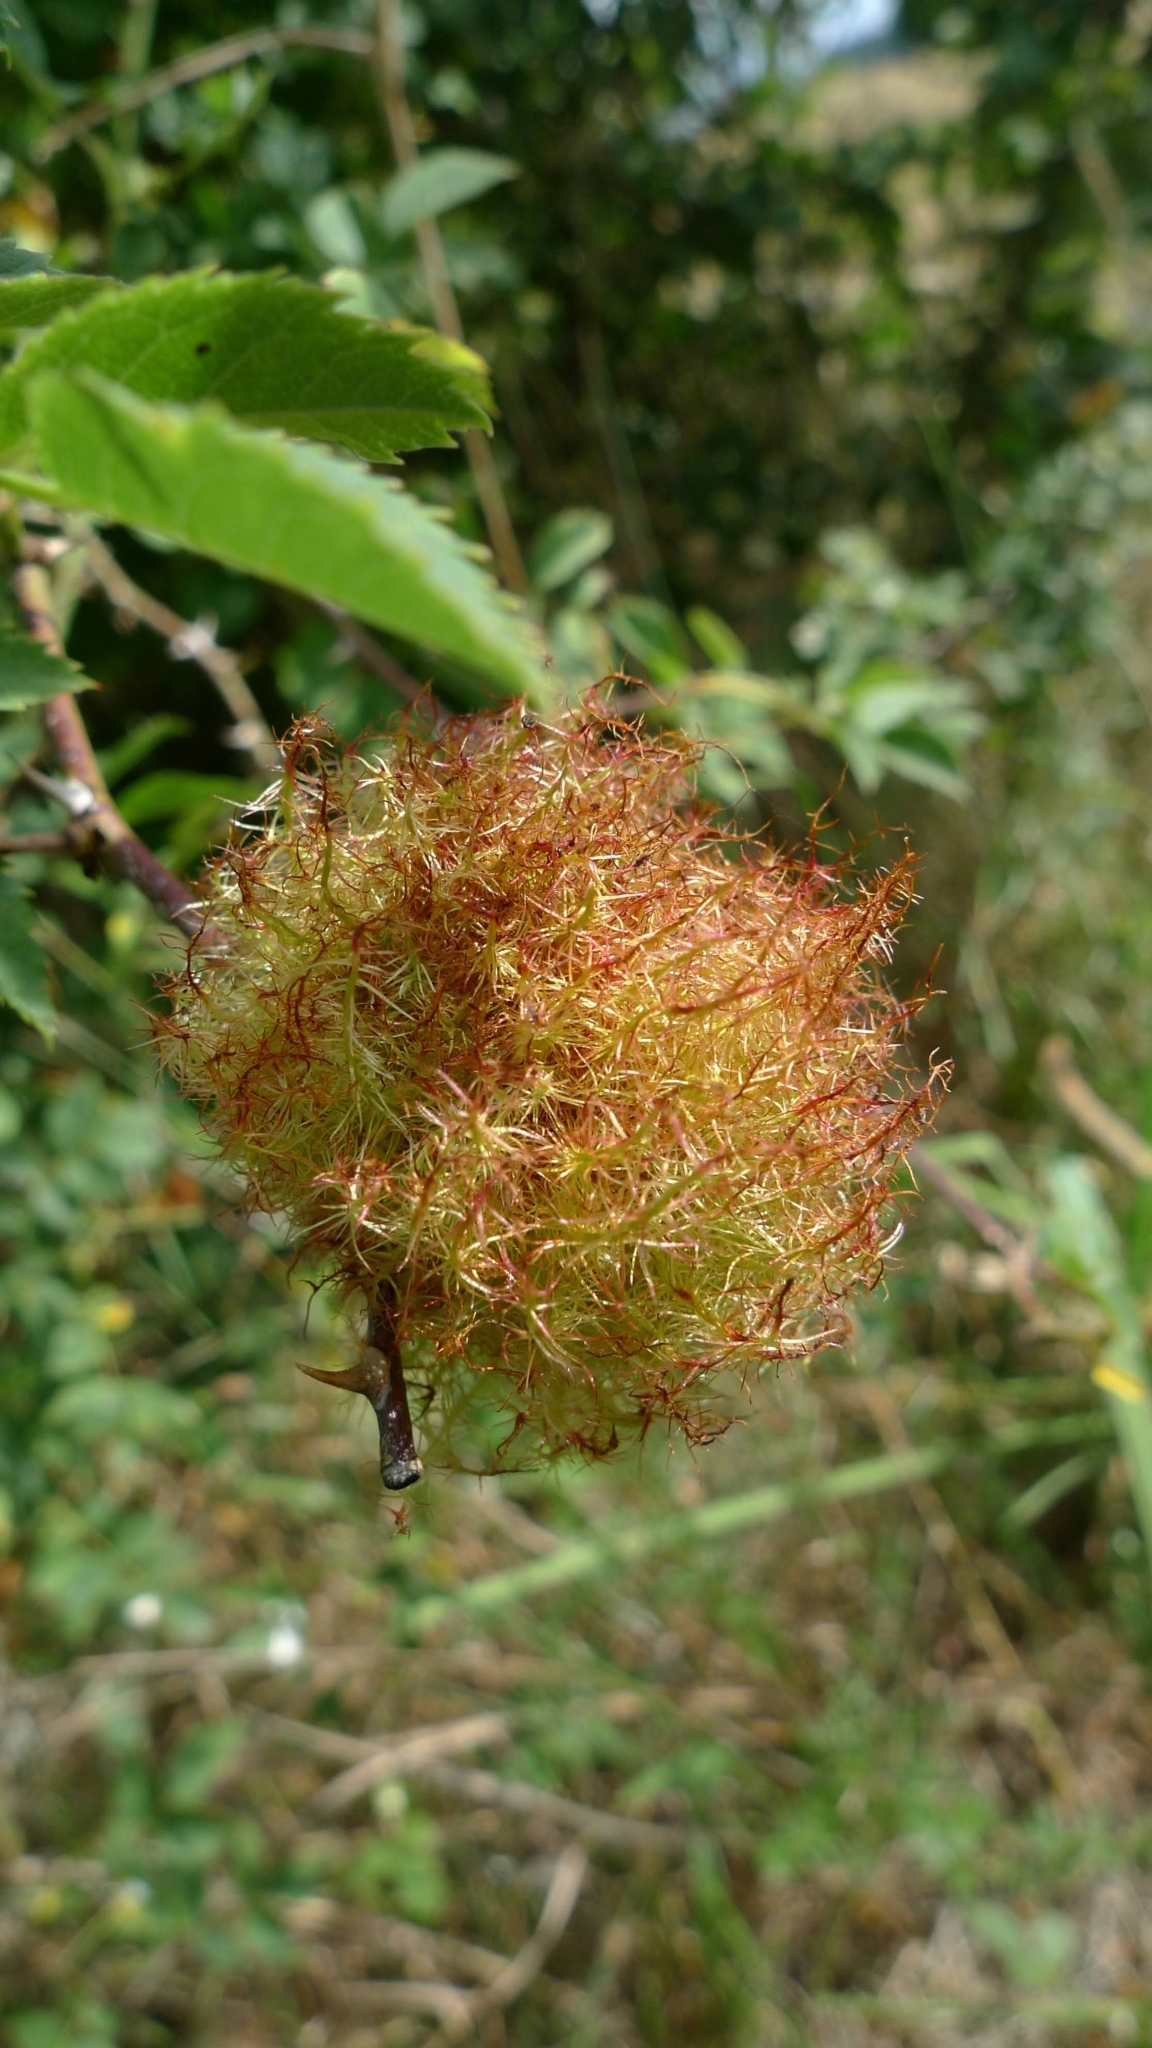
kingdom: Animalia
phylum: Arthropoda
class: Insecta
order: Hymenoptera
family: Cynipidae
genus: Diplolepis
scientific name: Diplolepis rosae
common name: Bedeguar gall
